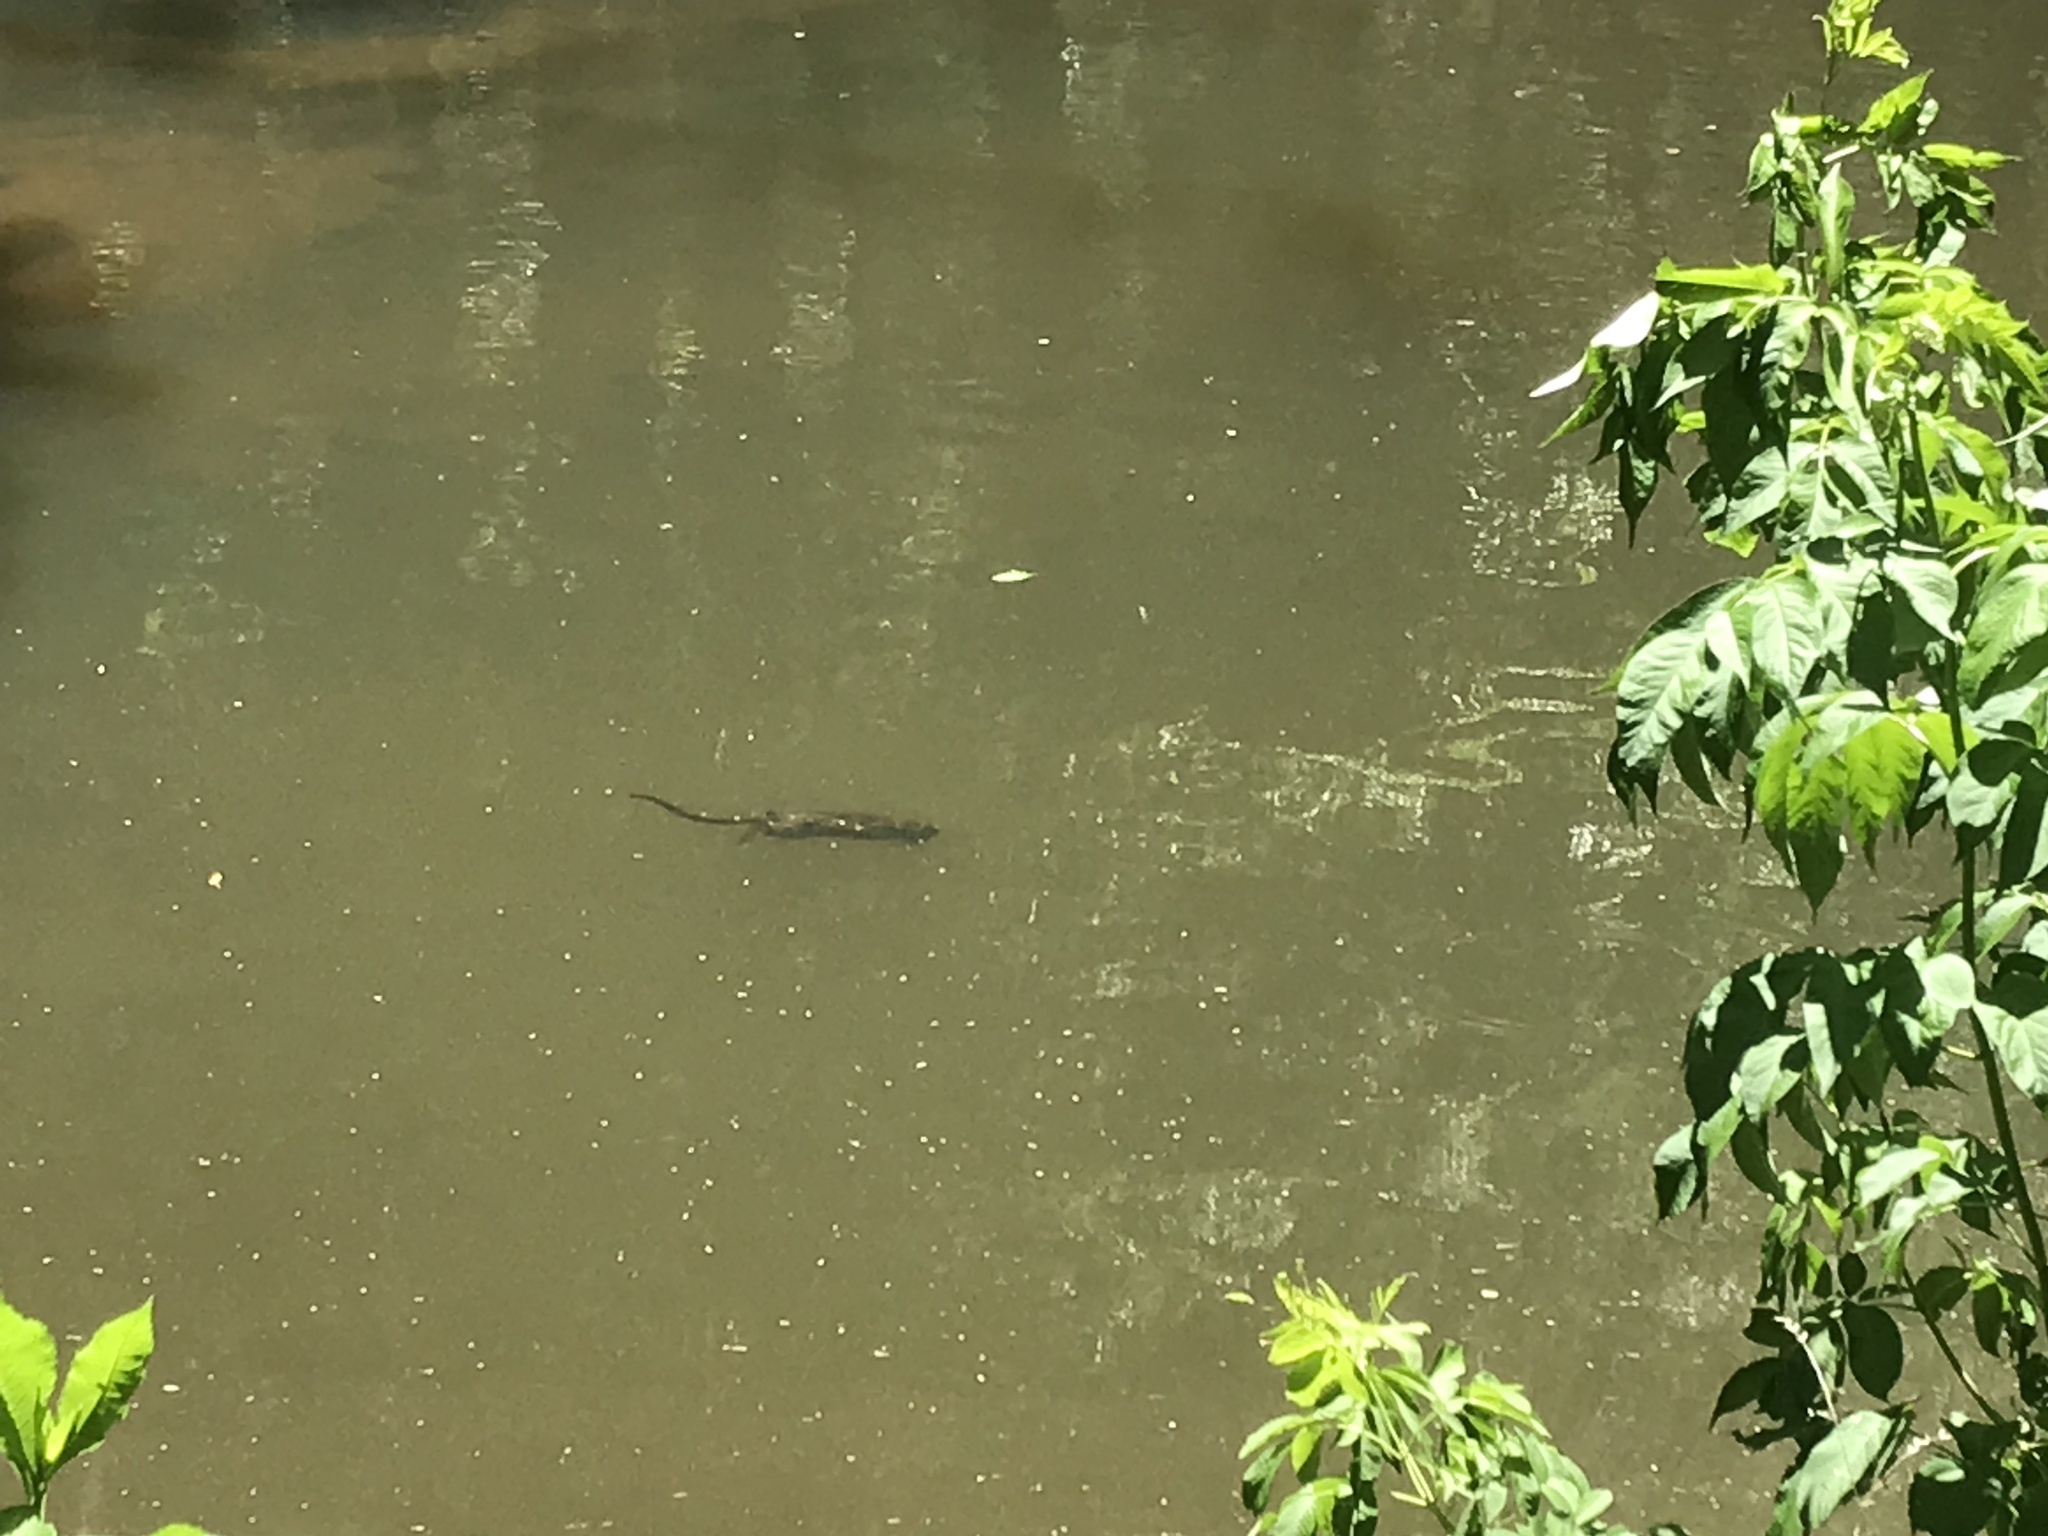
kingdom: Animalia
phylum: Chordata
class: Mammalia
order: Rodentia
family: Cricetidae
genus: Ondatra
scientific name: Ondatra zibethicus
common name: Muskrat
